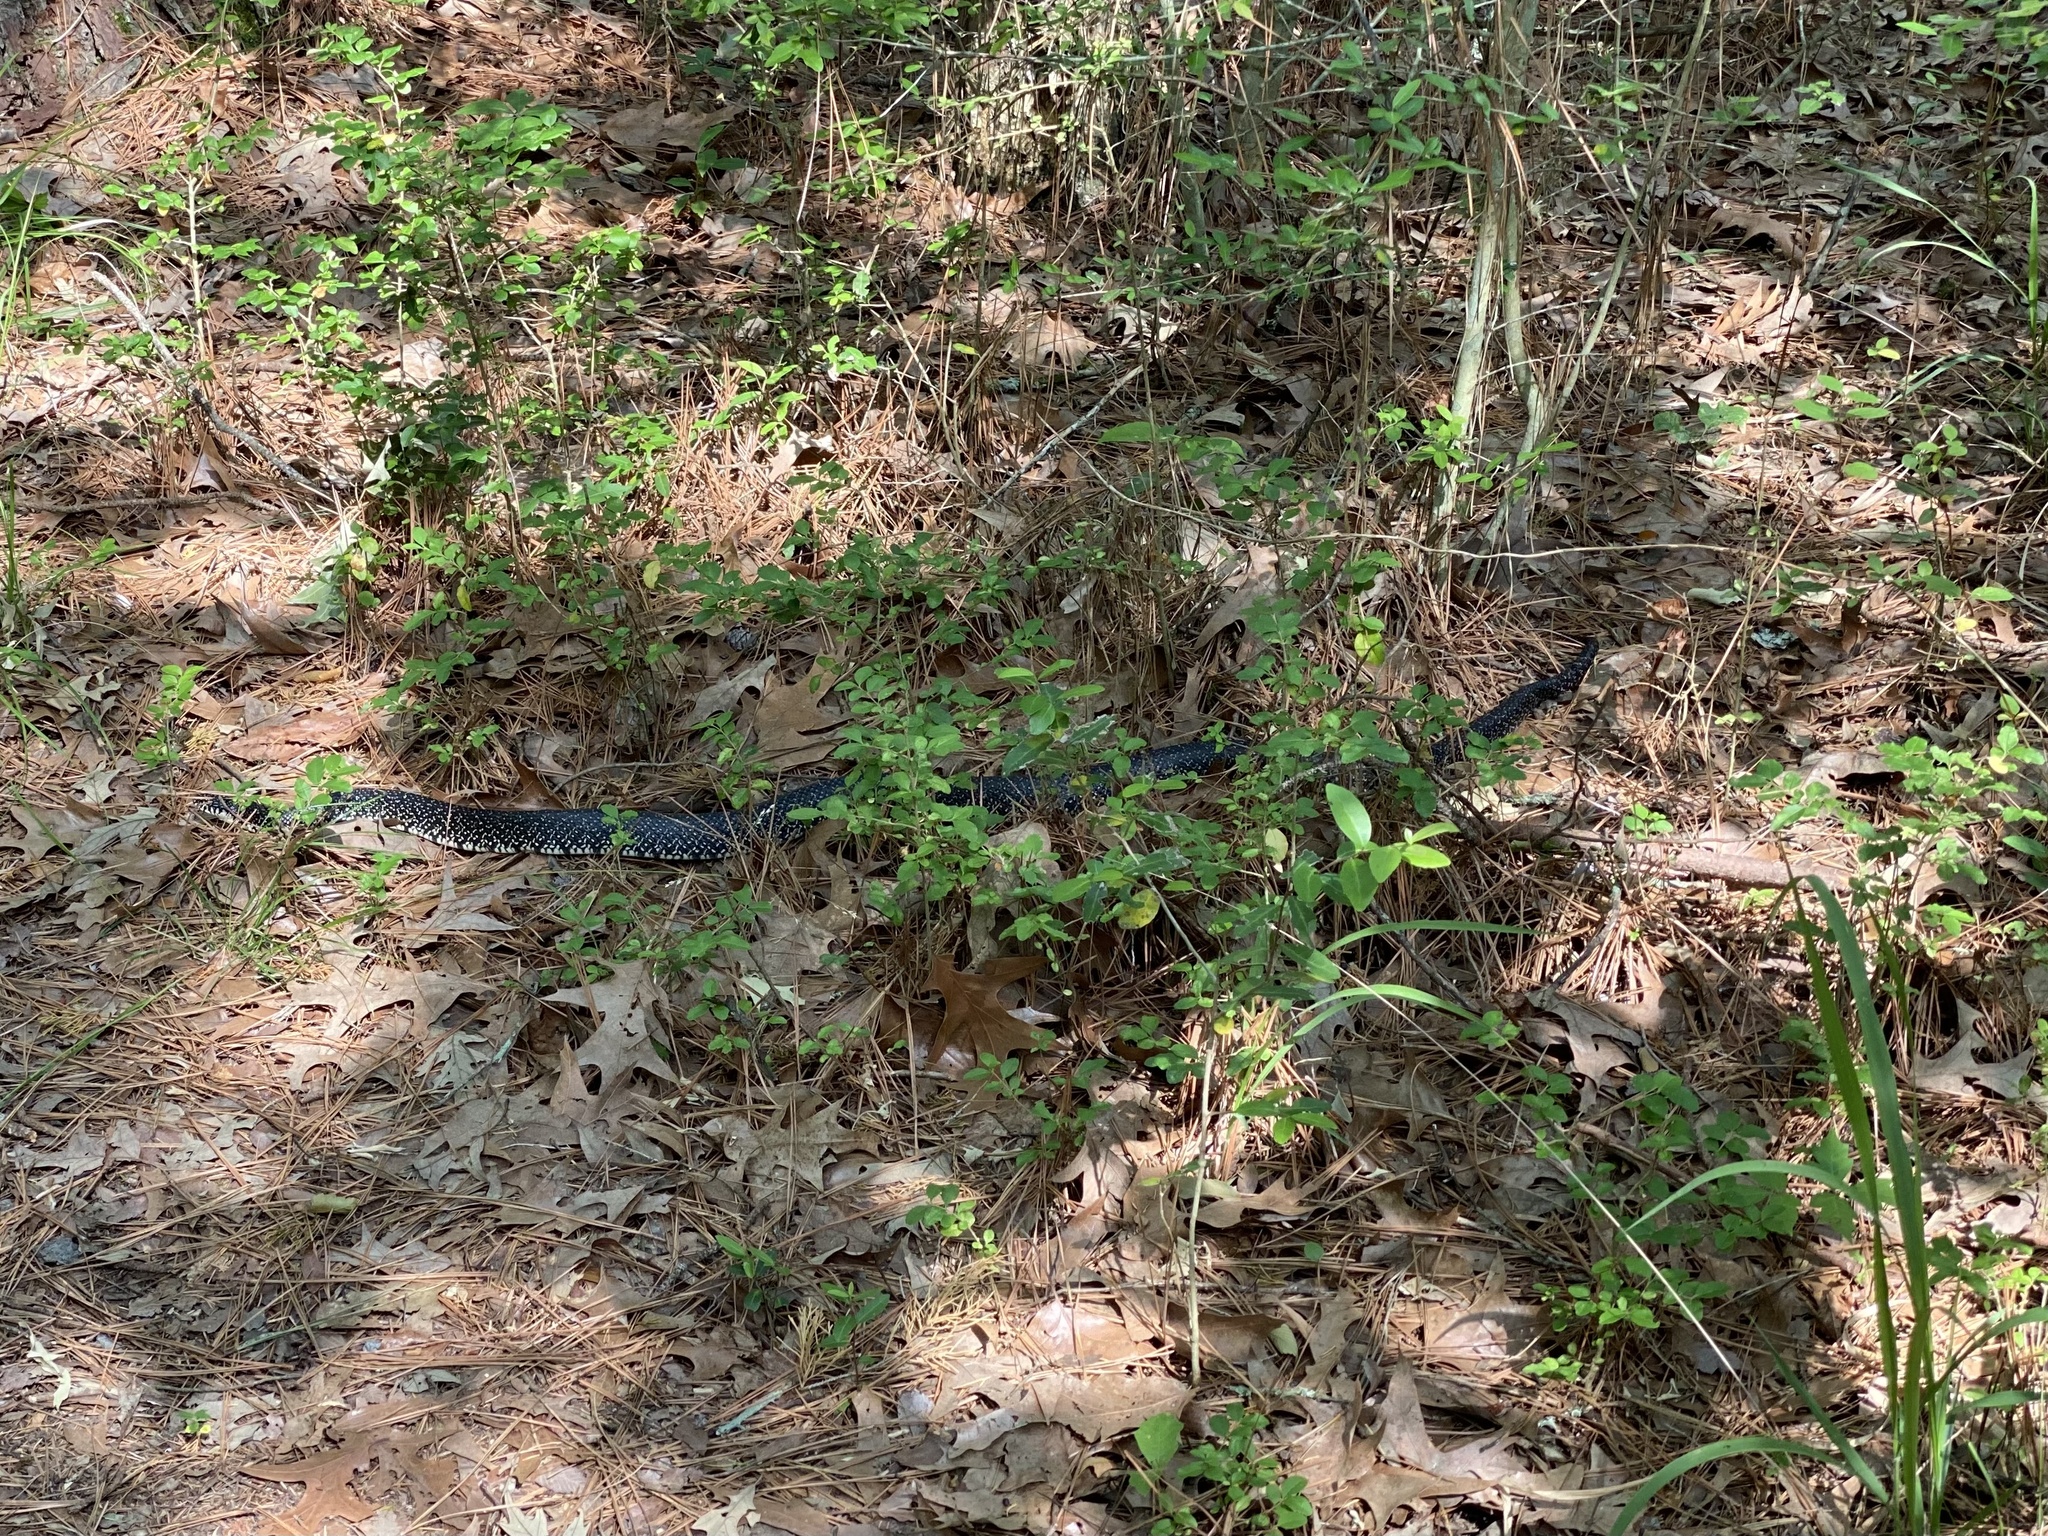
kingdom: Animalia
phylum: Chordata
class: Squamata
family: Colubridae
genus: Lampropeltis
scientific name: Lampropeltis holbrooki
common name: Speckled kingsnake
